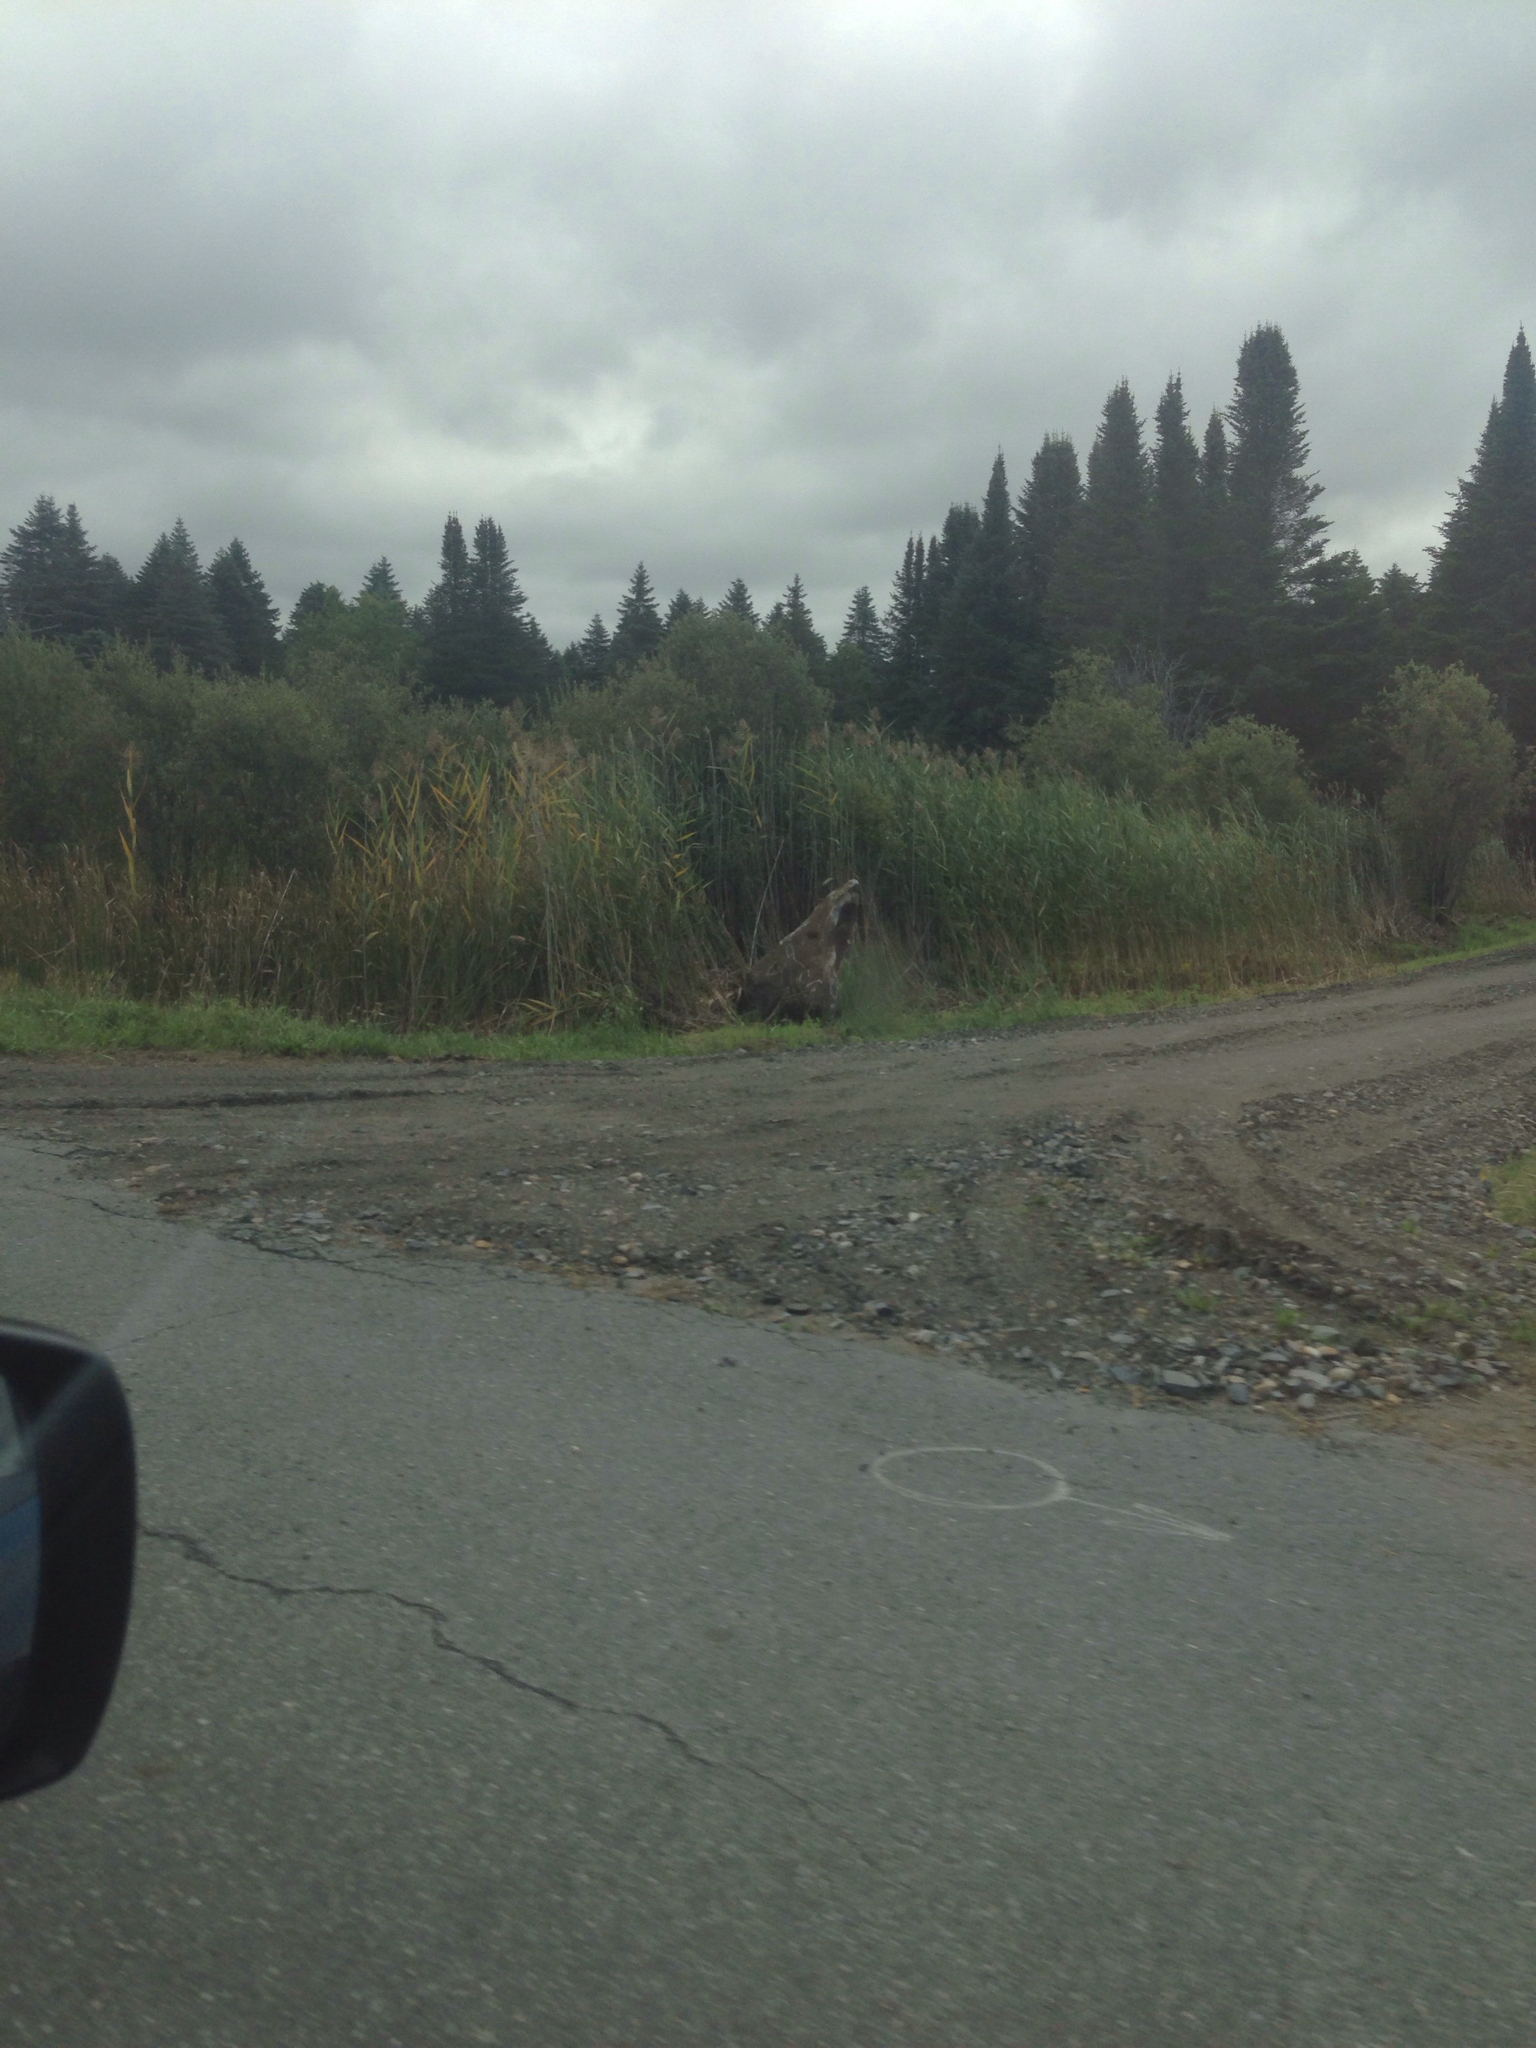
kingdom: Plantae
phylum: Tracheophyta
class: Liliopsida
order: Poales
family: Poaceae
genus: Phragmites
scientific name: Phragmites australis
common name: Common reed
